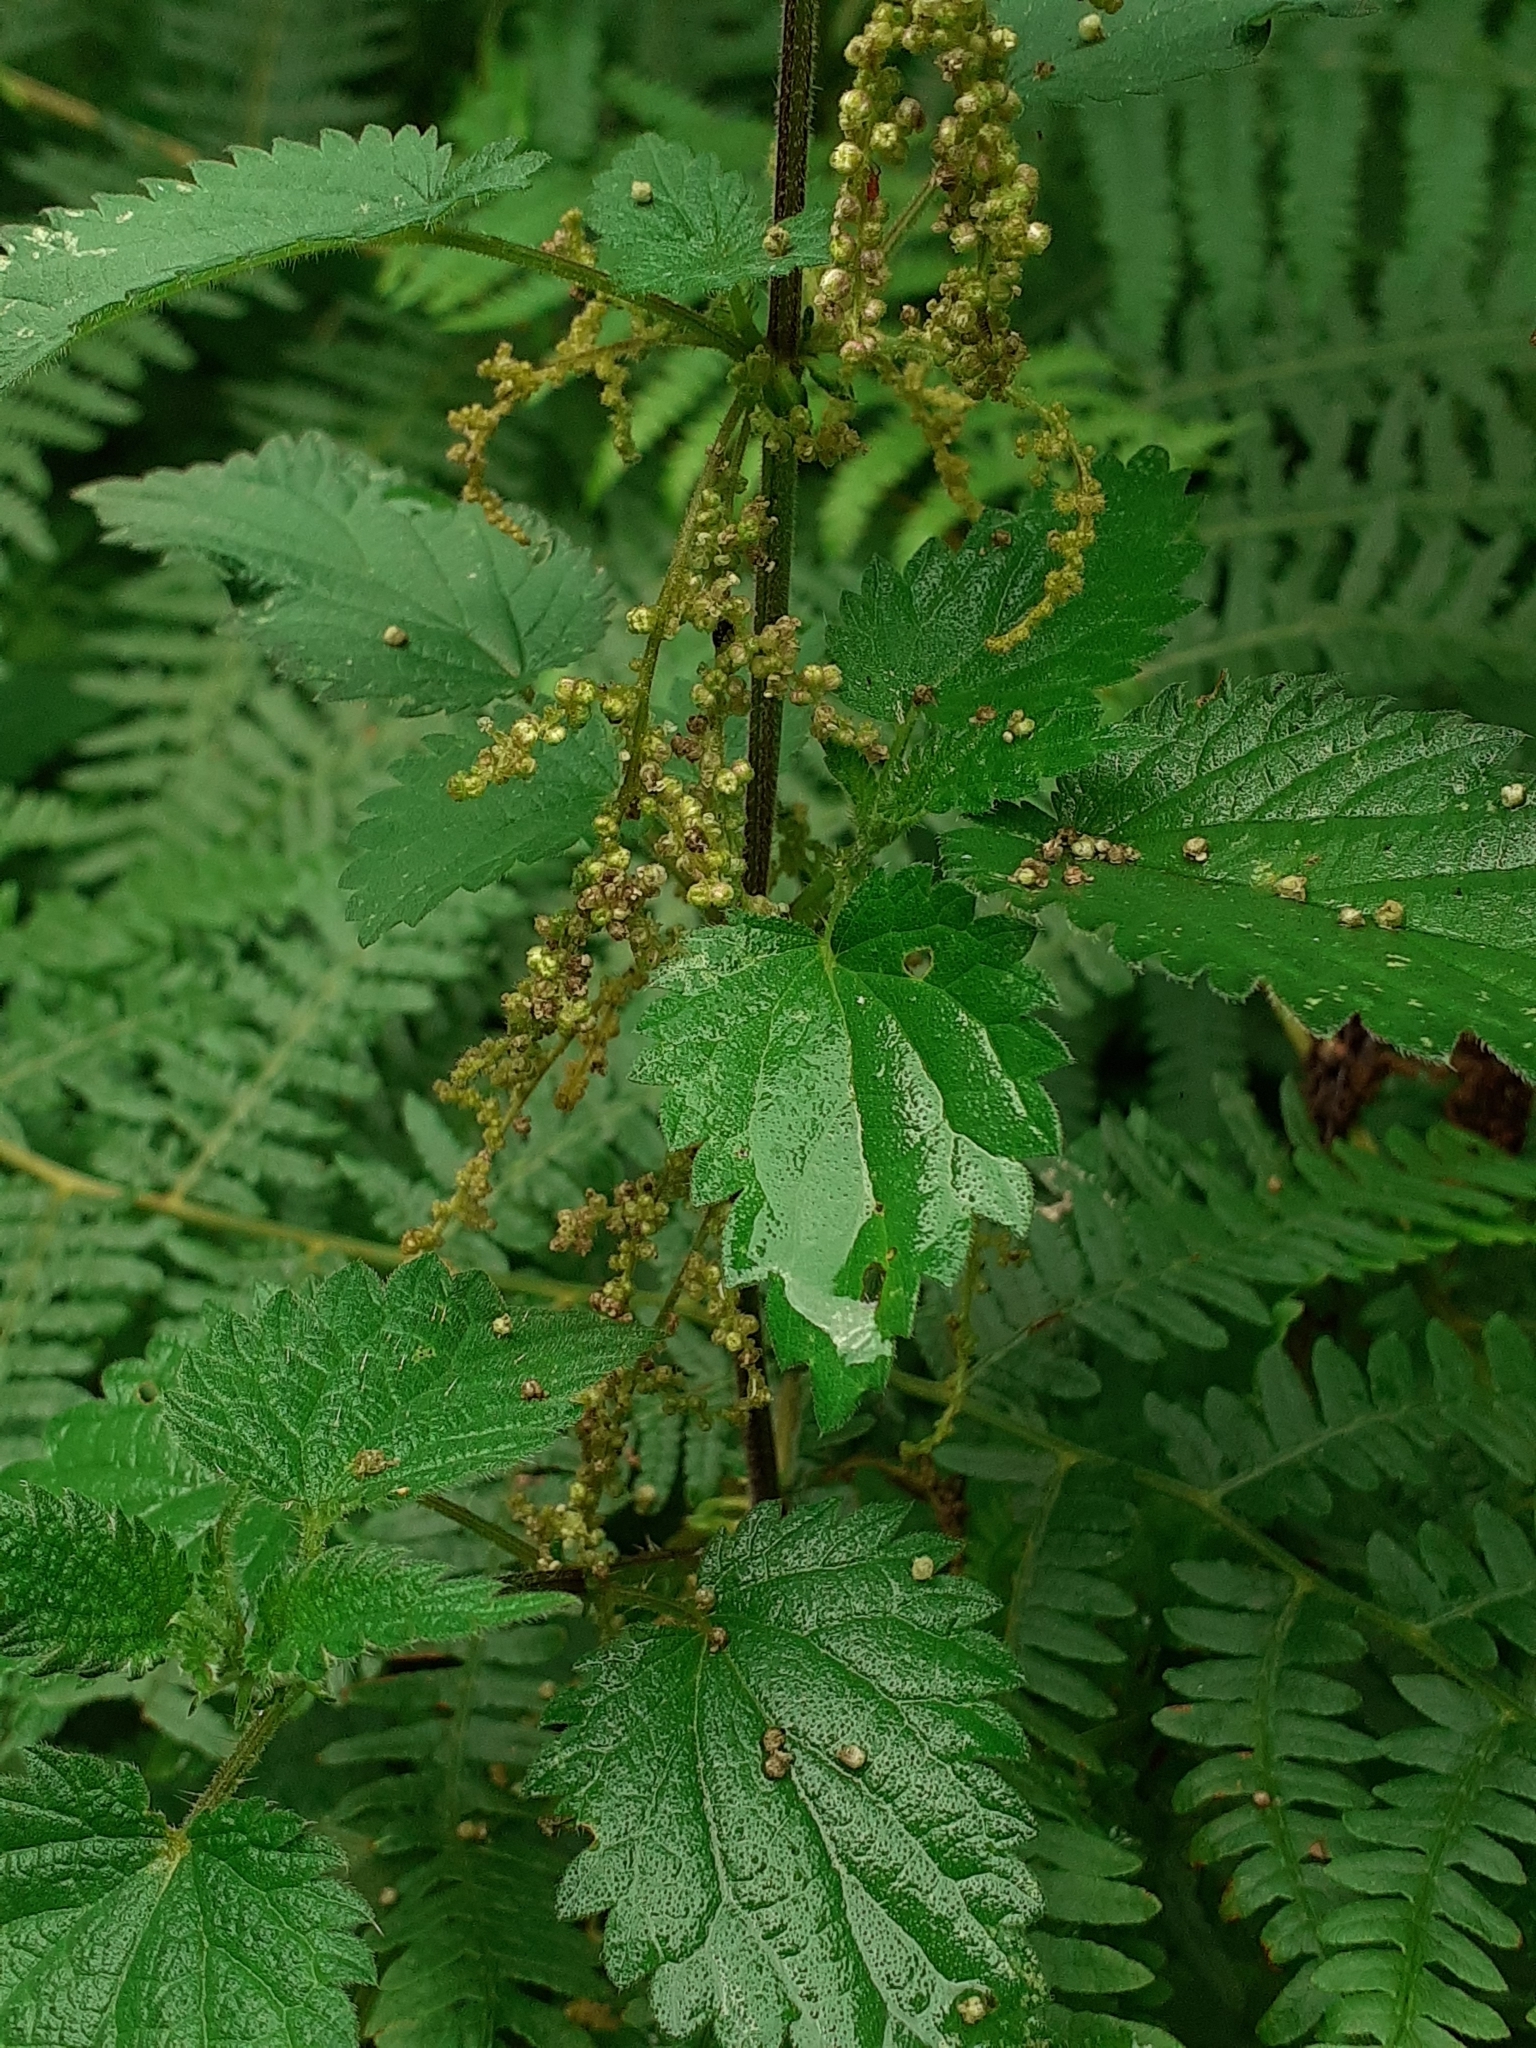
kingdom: Plantae
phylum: Tracheophyta
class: Magnoliopsida
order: Rosales
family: Urticaceae
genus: Urtica
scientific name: Urtica dioica
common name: Common nettle
